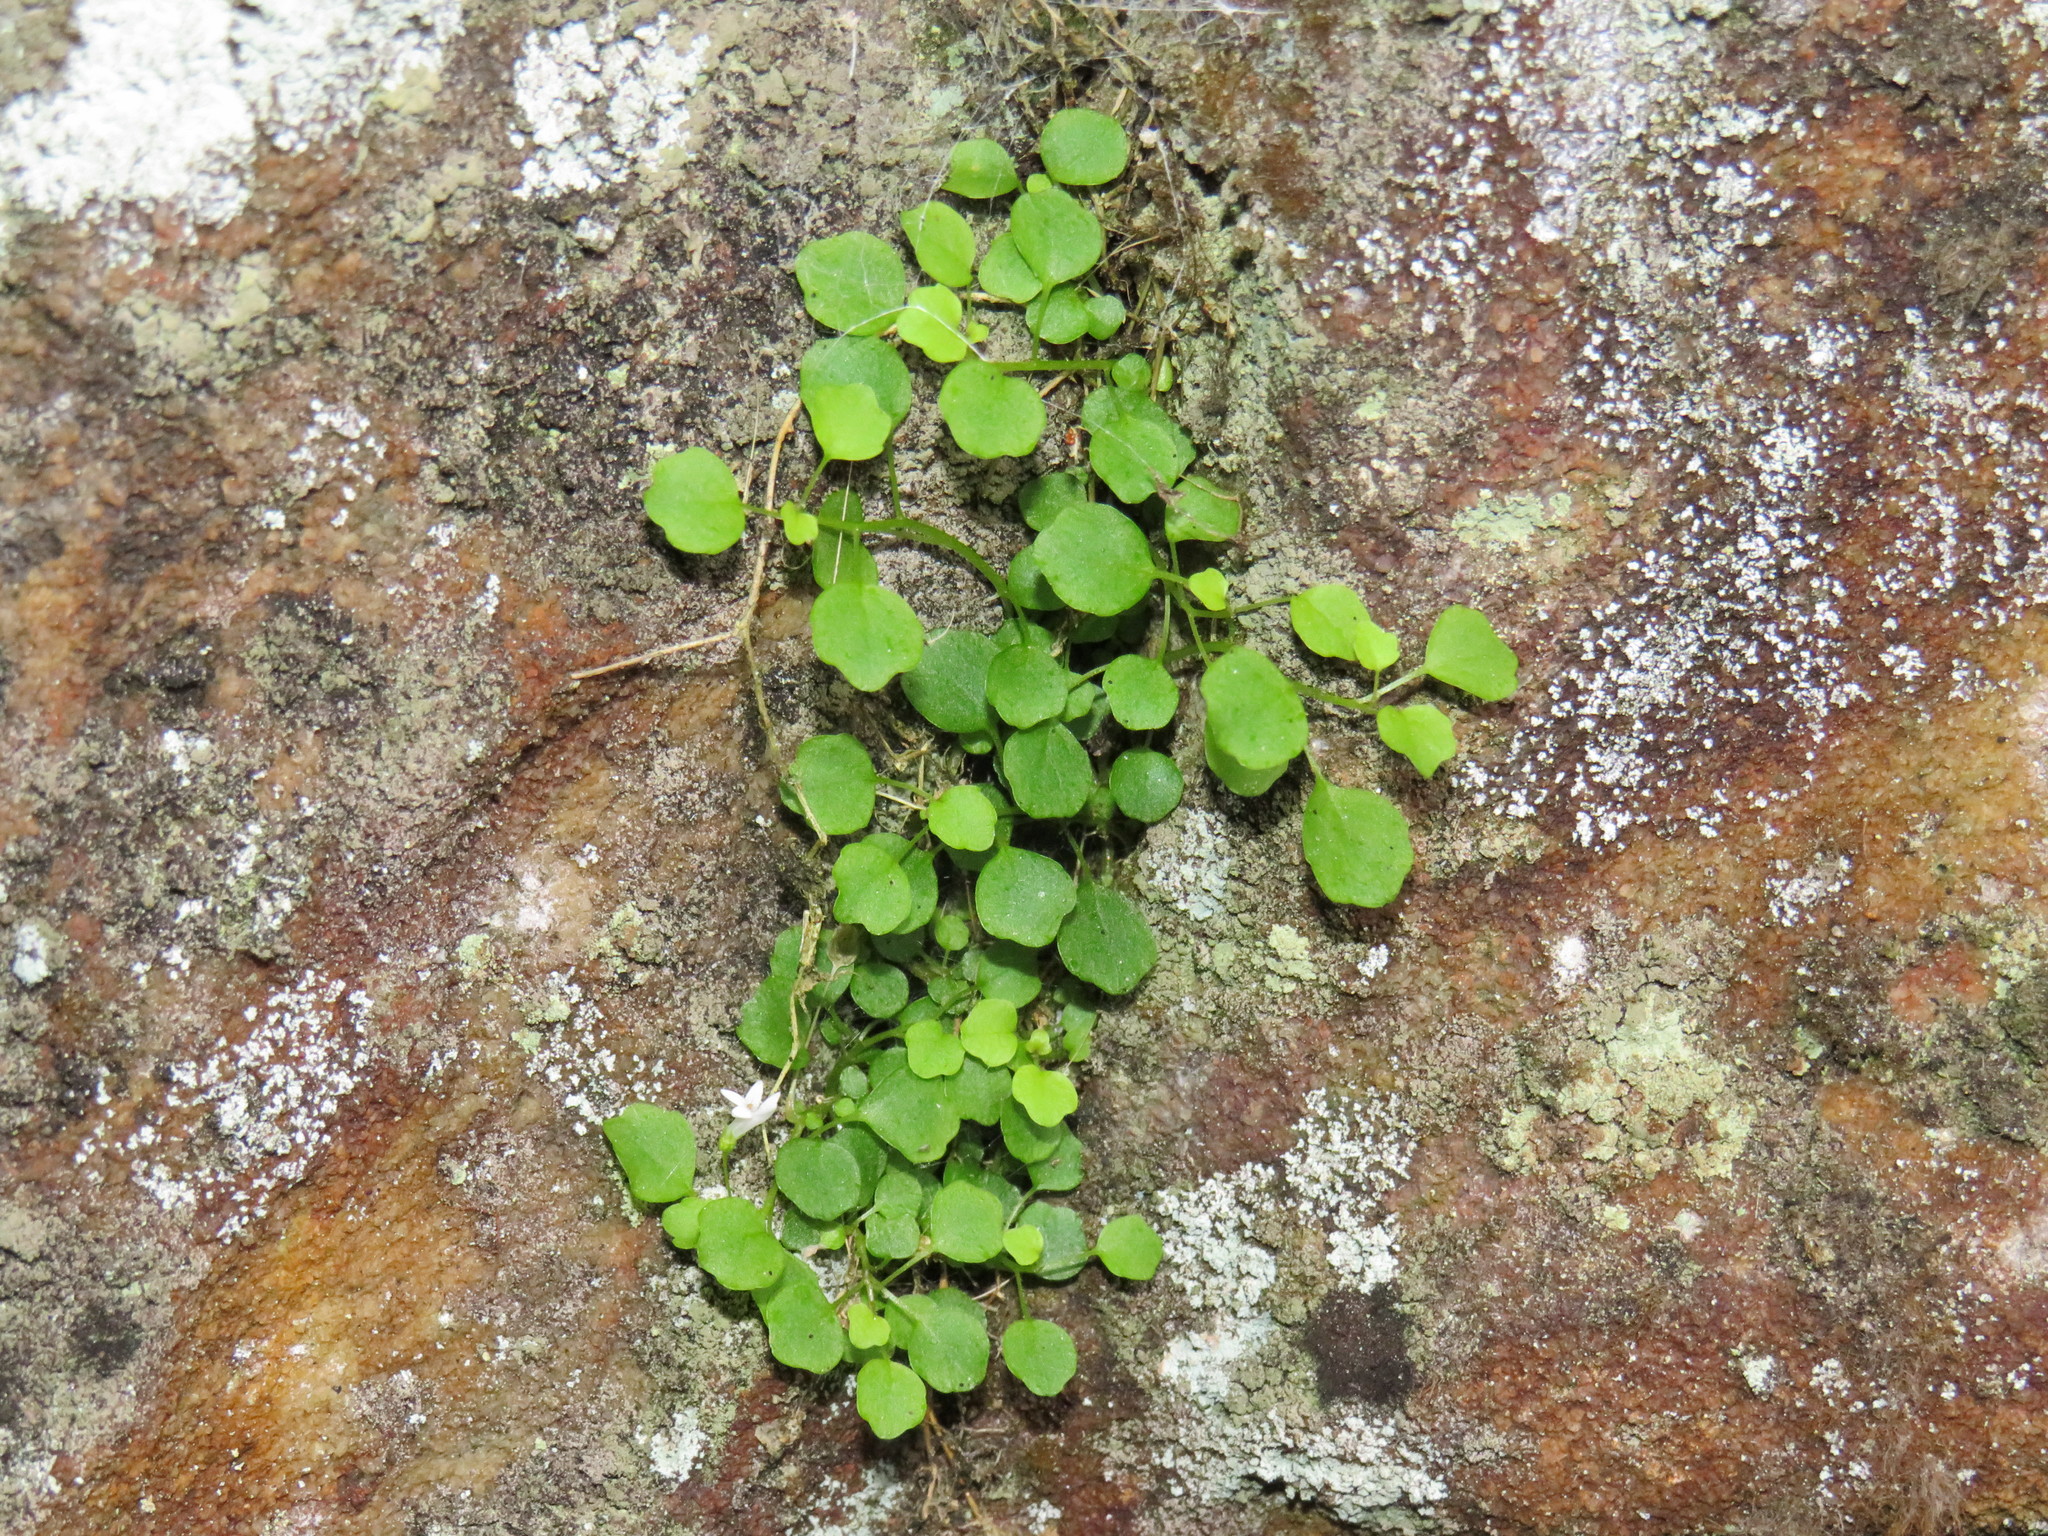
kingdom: Plantae
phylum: Tracheophyta
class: Magnoliopsida
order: Asterales
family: Campanulaceae
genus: Wimmerella
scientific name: Wimmerella pygmaea
